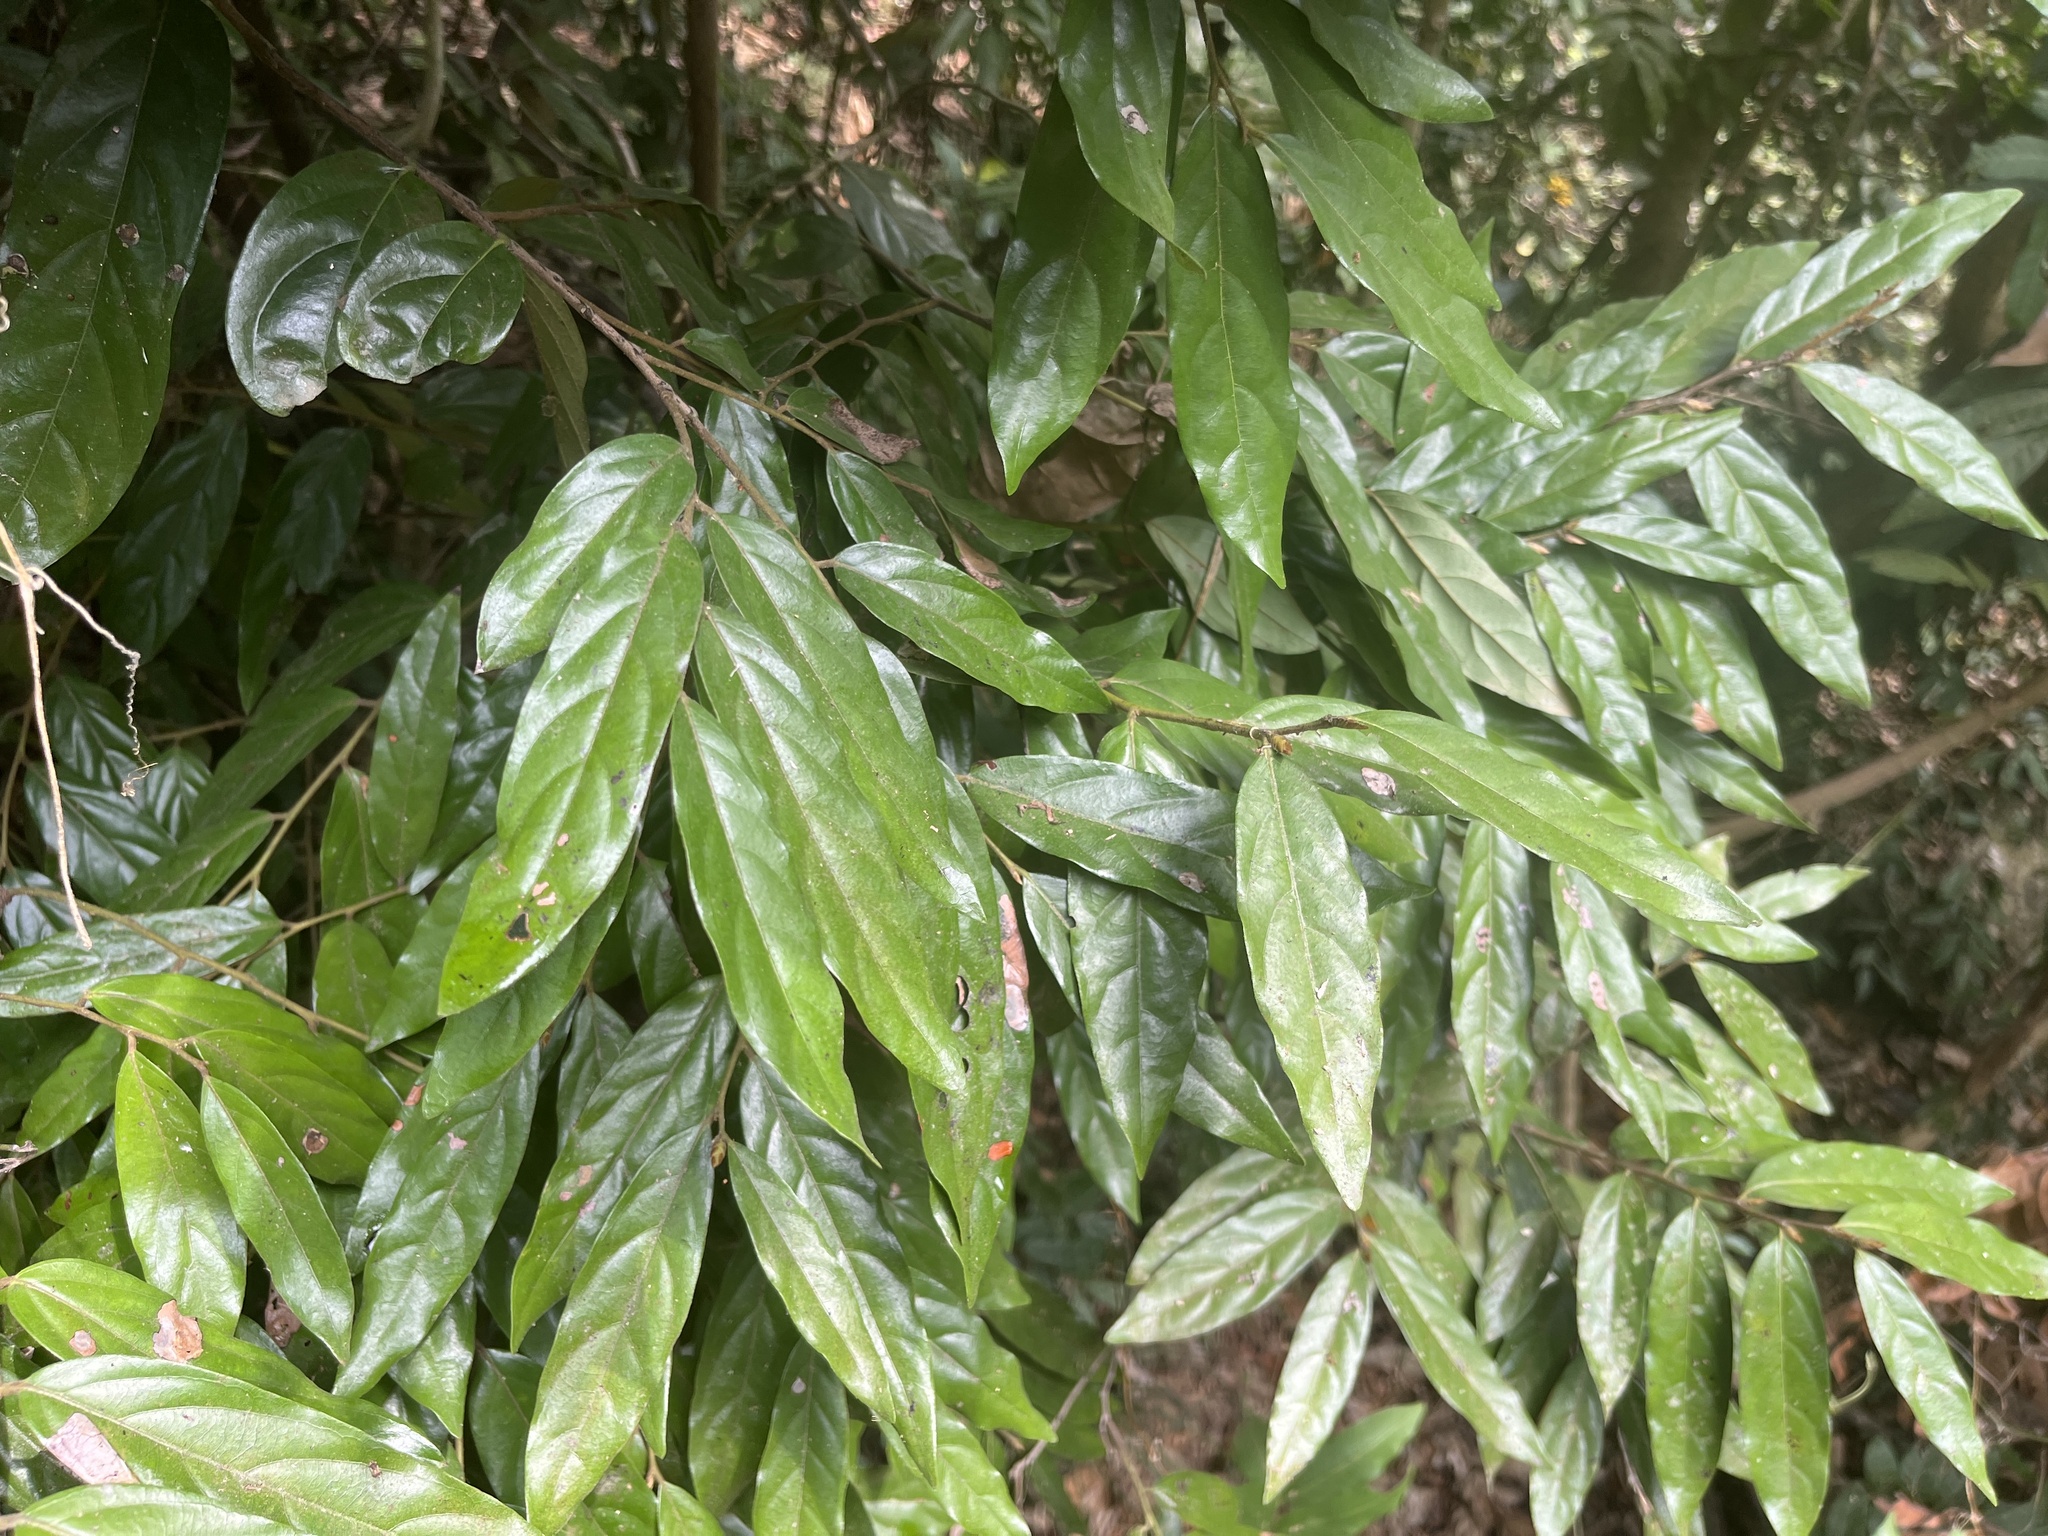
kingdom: Plantae
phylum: Tracheophyta
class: Magnoliopsida
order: Ericales
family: Ebenaceae
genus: Diospyros
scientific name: Diospyros eriantha
